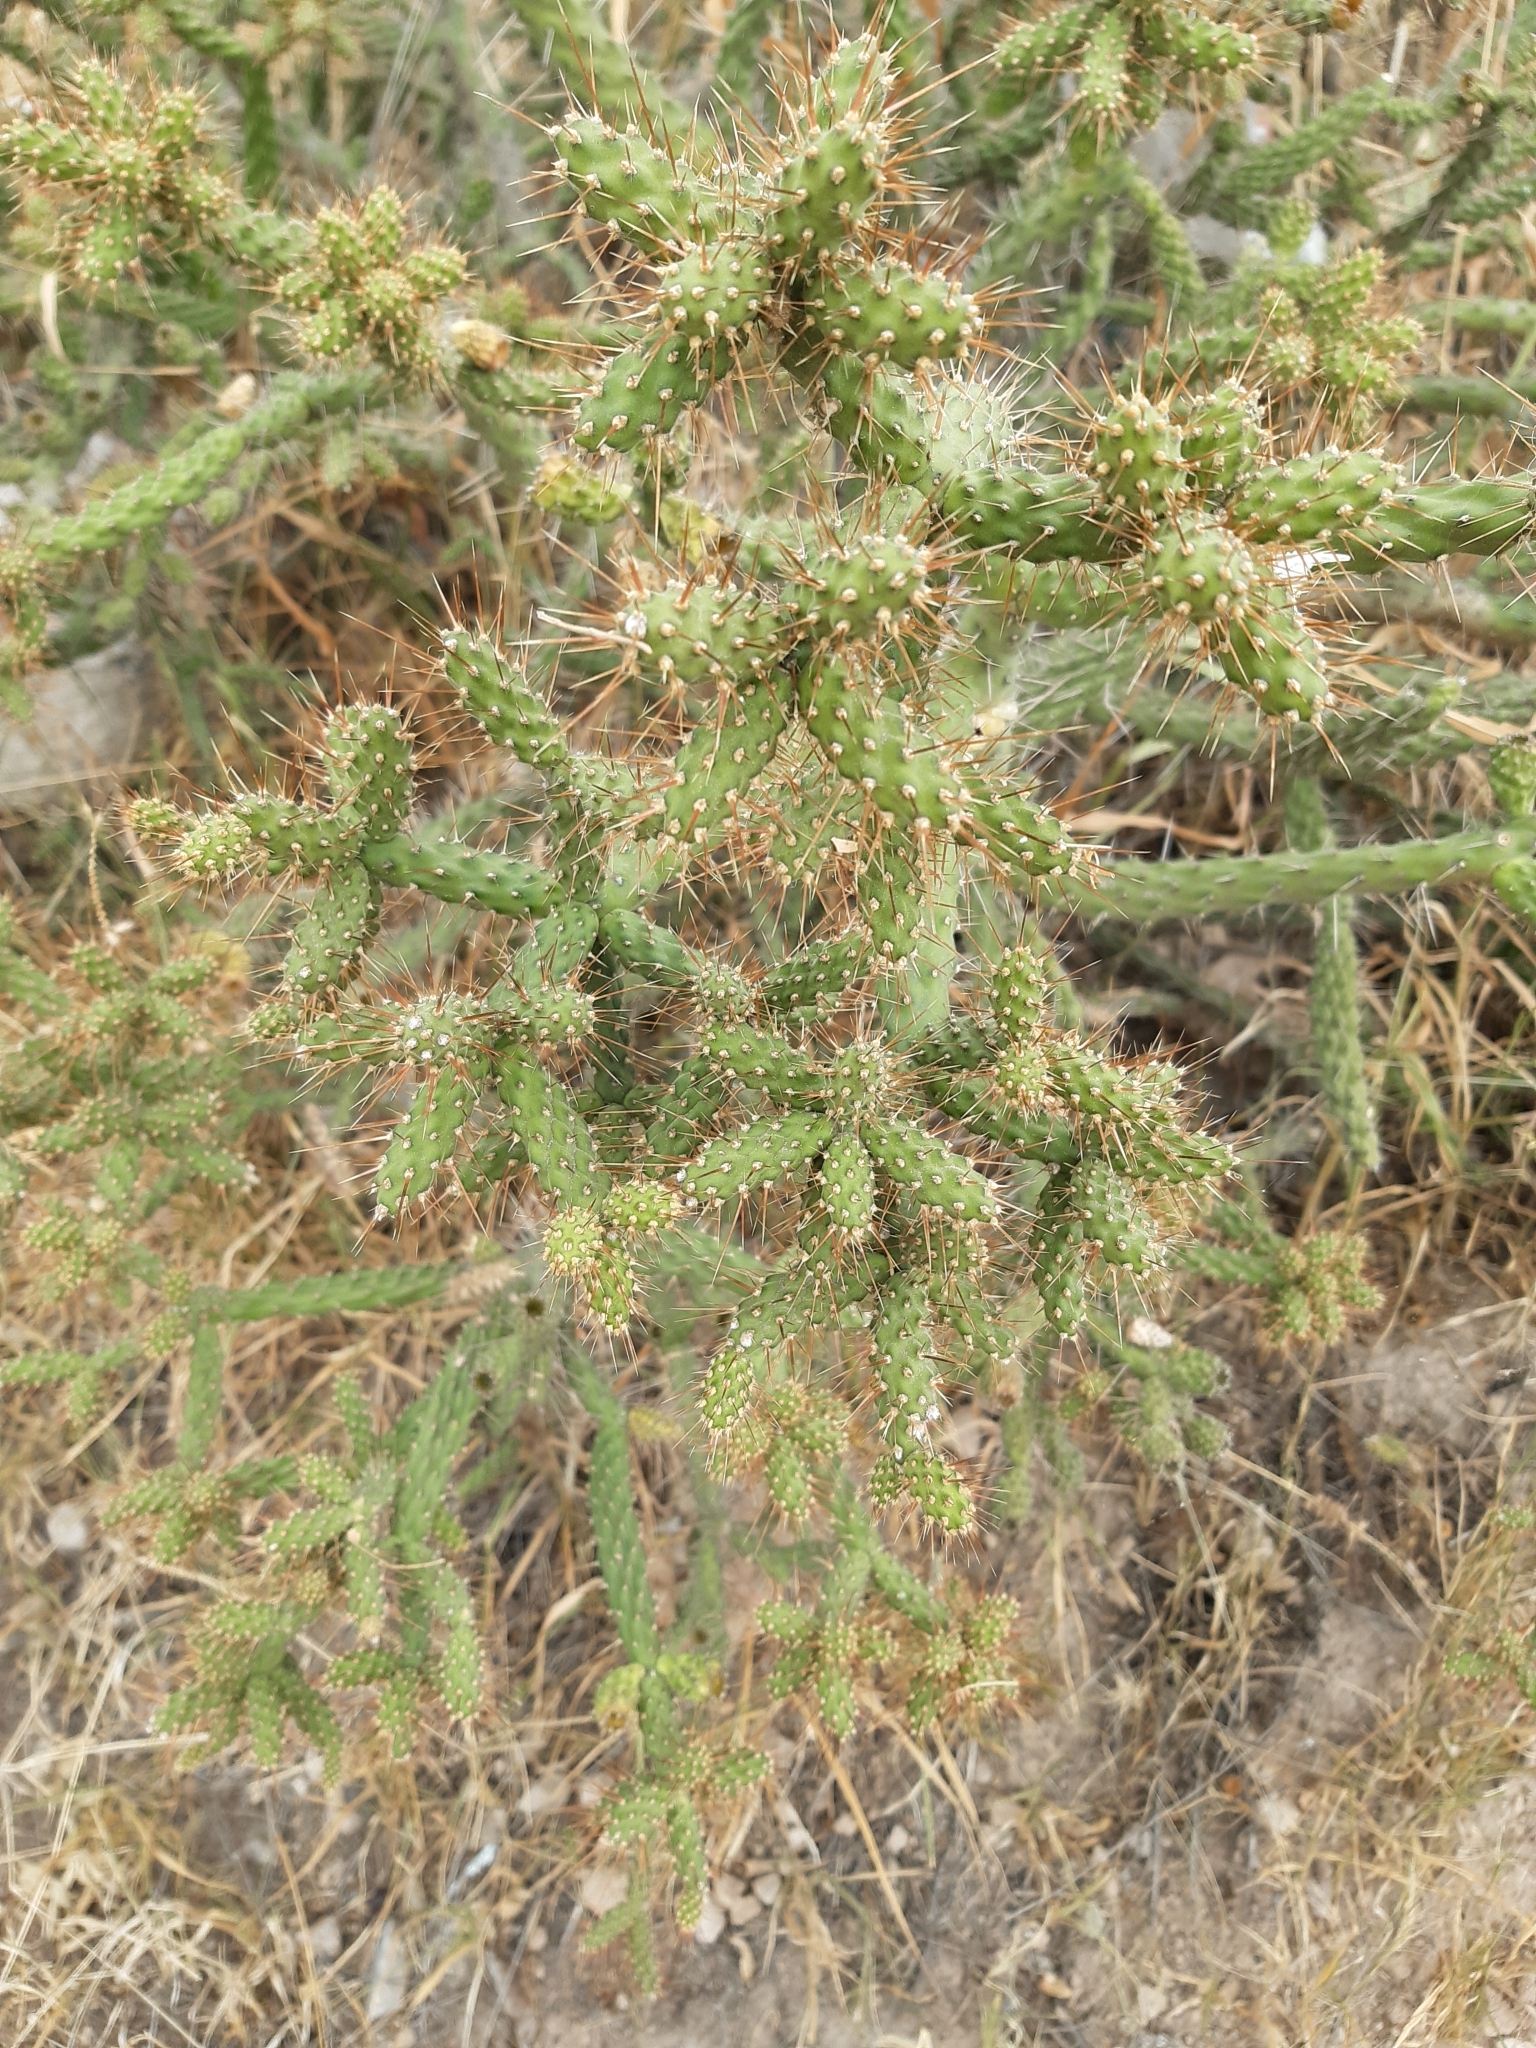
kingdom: Plantae
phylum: Tracheophyta
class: Magnoliopsida
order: Caryophyllales
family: Cactaceae
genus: Opuntia
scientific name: Opuntia pubescens
